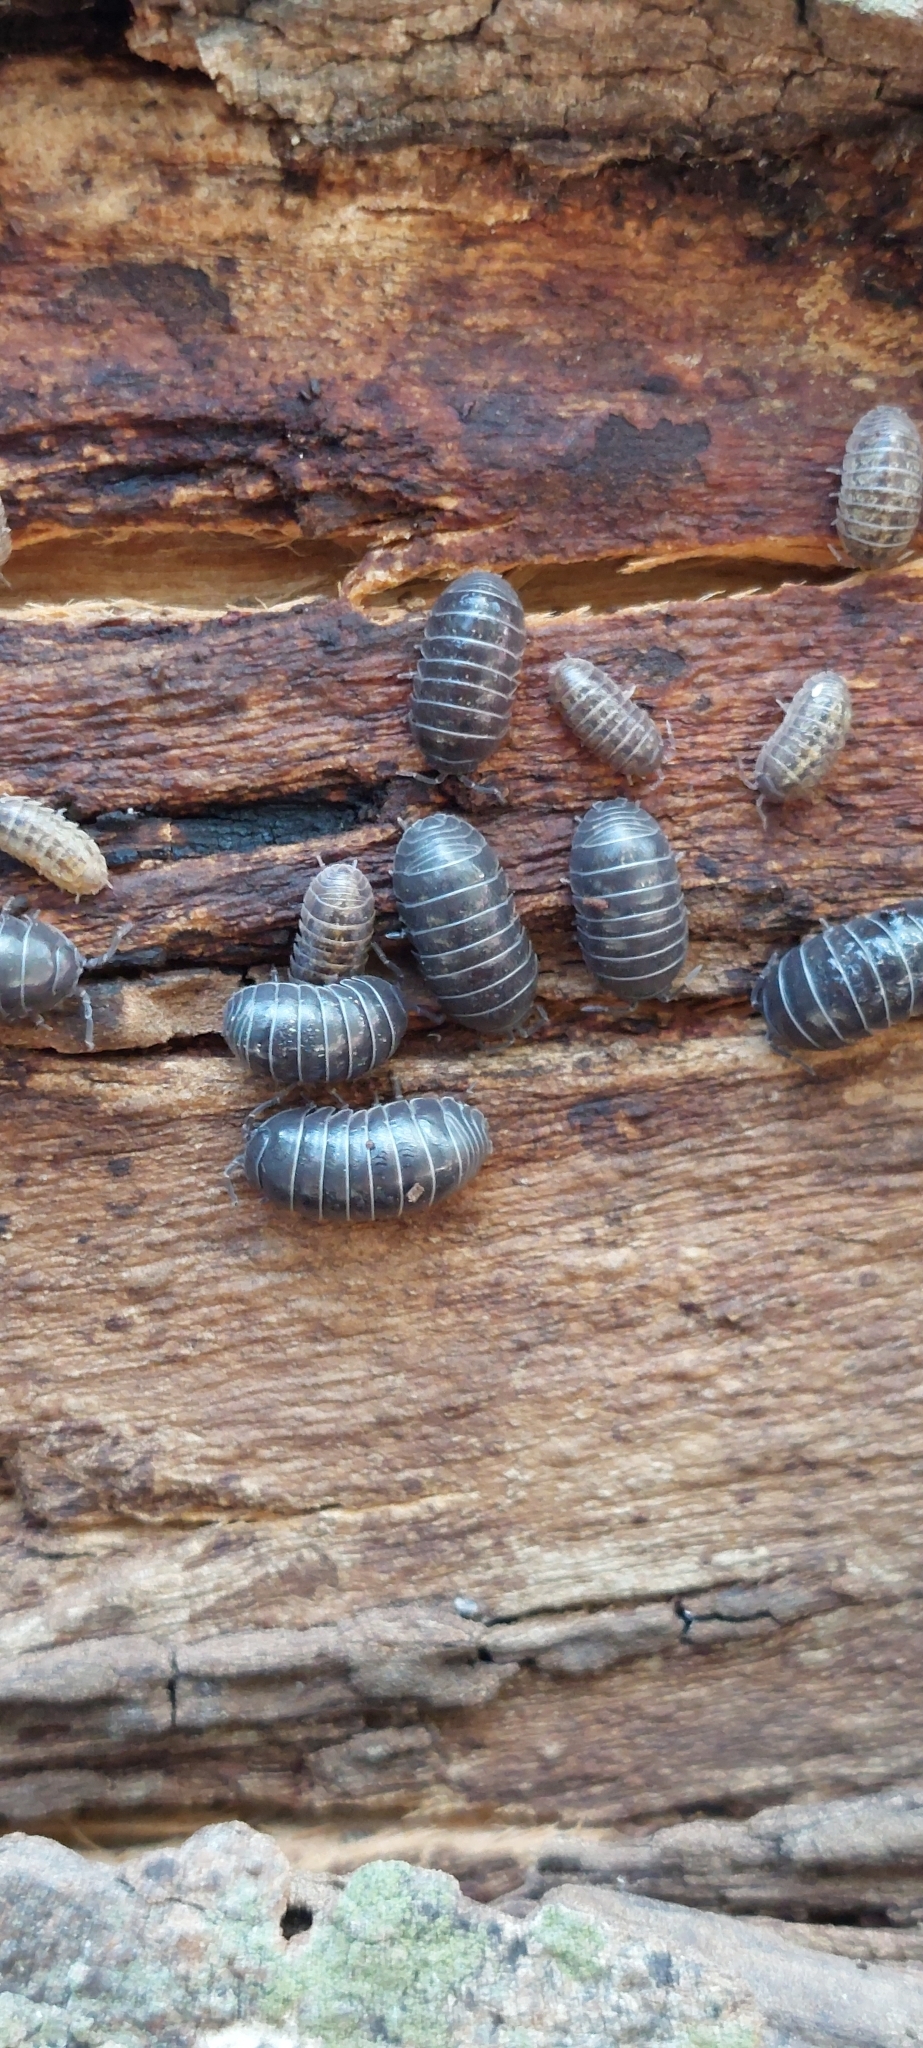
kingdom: Animalia
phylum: Arthropoda
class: Malacostraca
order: Isopoda
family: Armadillidiidae
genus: Armadillidium
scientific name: Armadillidium vulgare
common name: Common pill woodlouse
